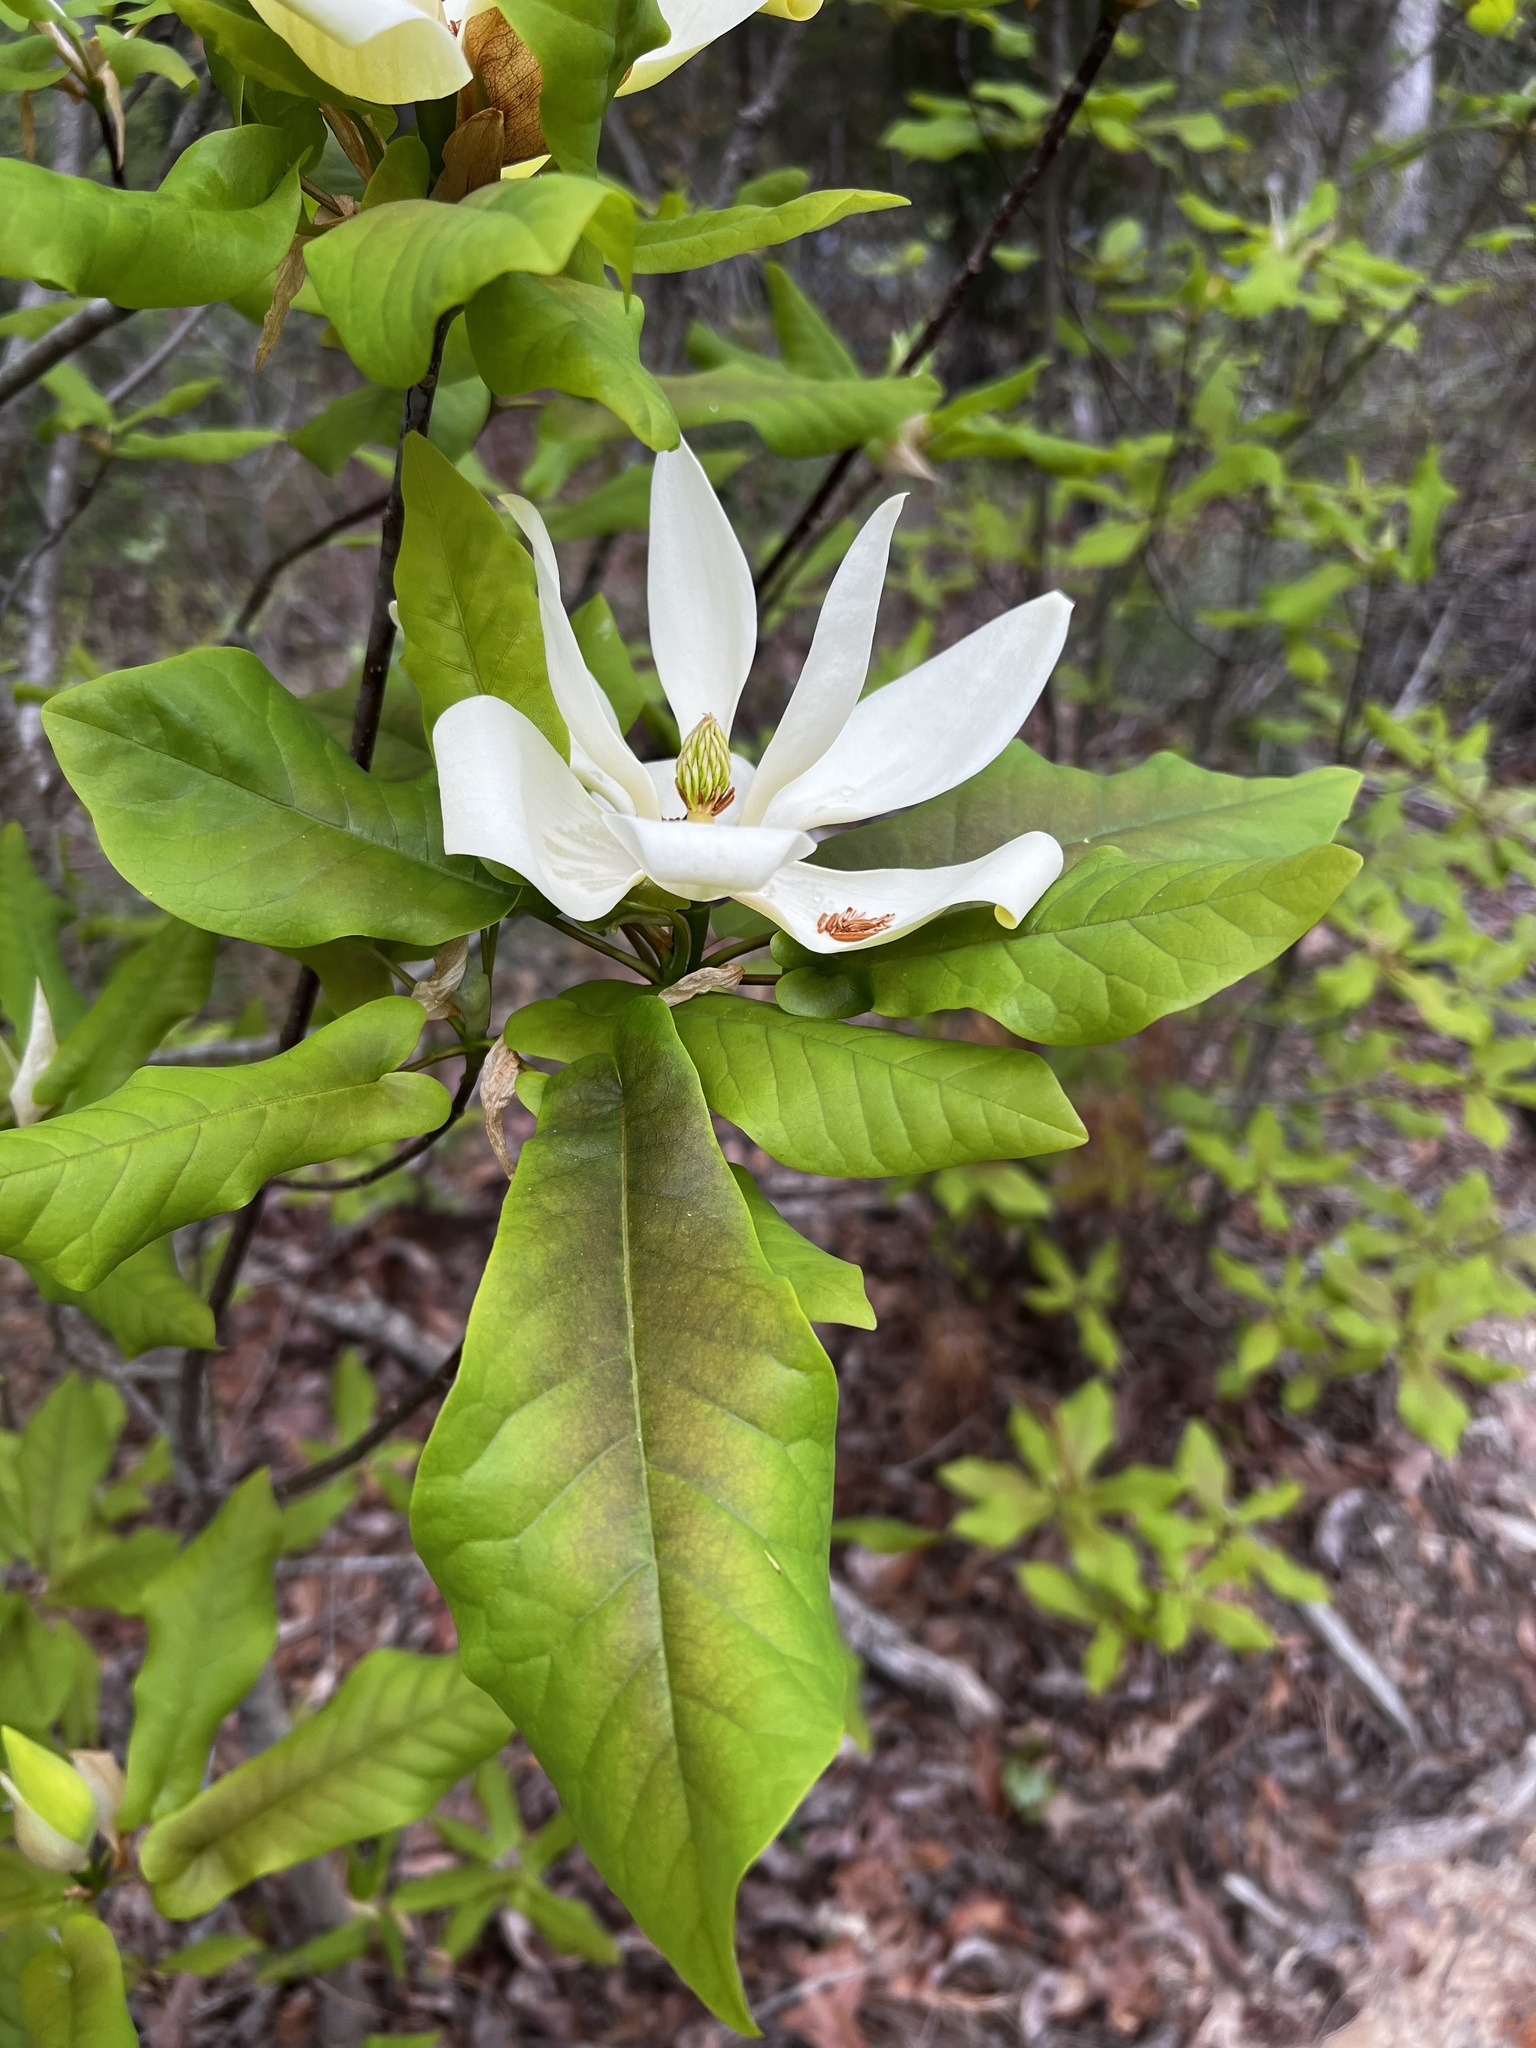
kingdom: Plantae
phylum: Tracheophyta
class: Magnoliopsida
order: Magnoliales
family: Magnoliaceae
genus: Magnolia
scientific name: Magnolia fraseri
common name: Fraser's magnolia
